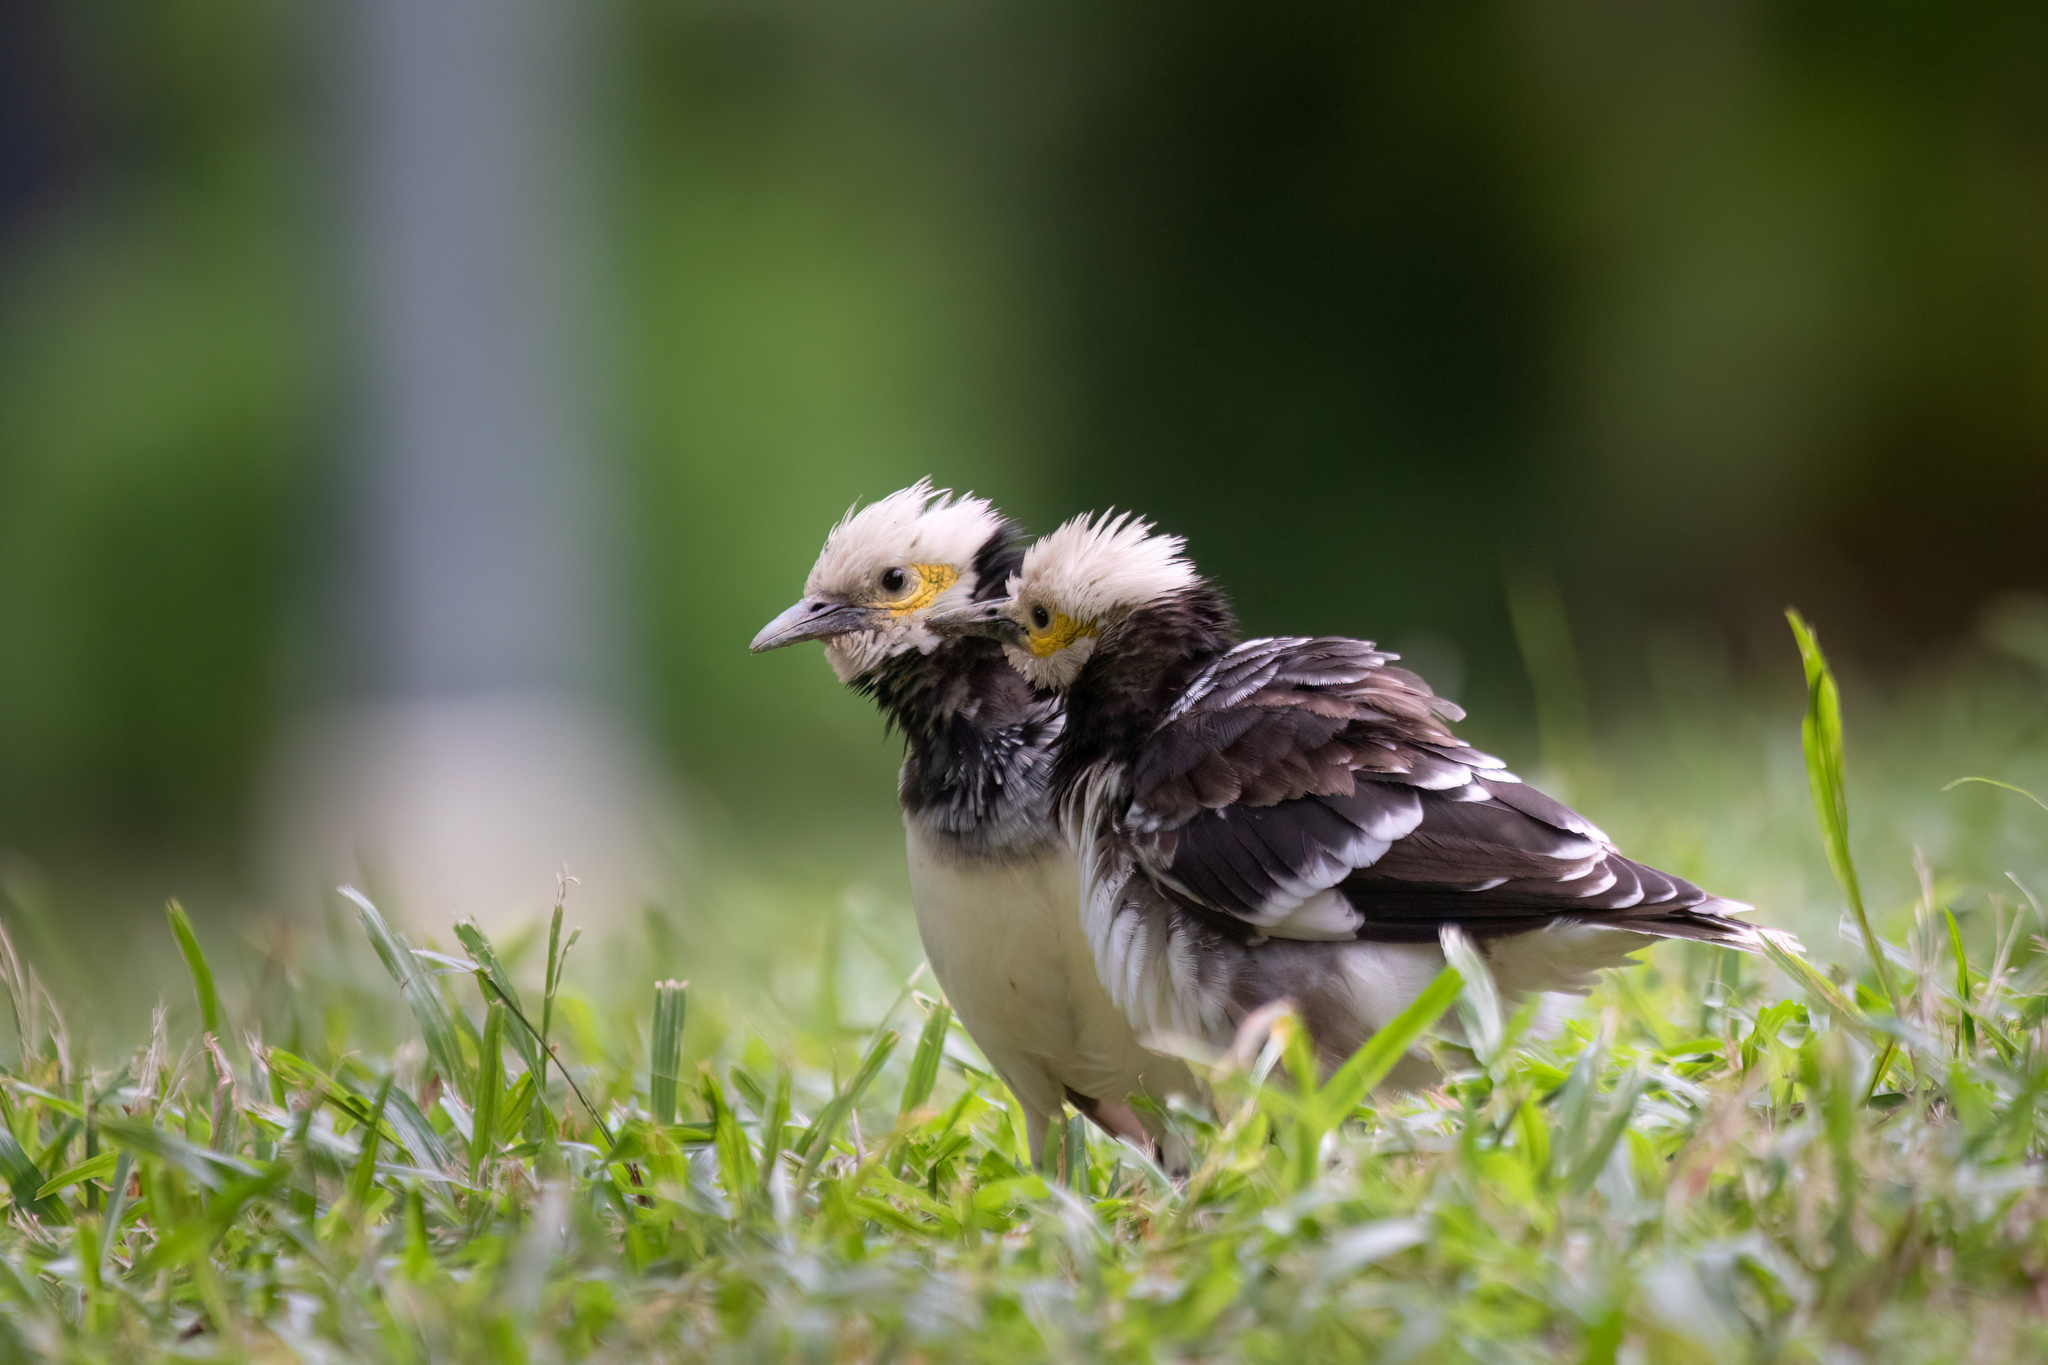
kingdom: Animalia
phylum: Chordata
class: Aves
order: Passeriformes
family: Sturnidae
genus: Gracupica
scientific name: Gracupica nigricollis
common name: Black-collared starling
